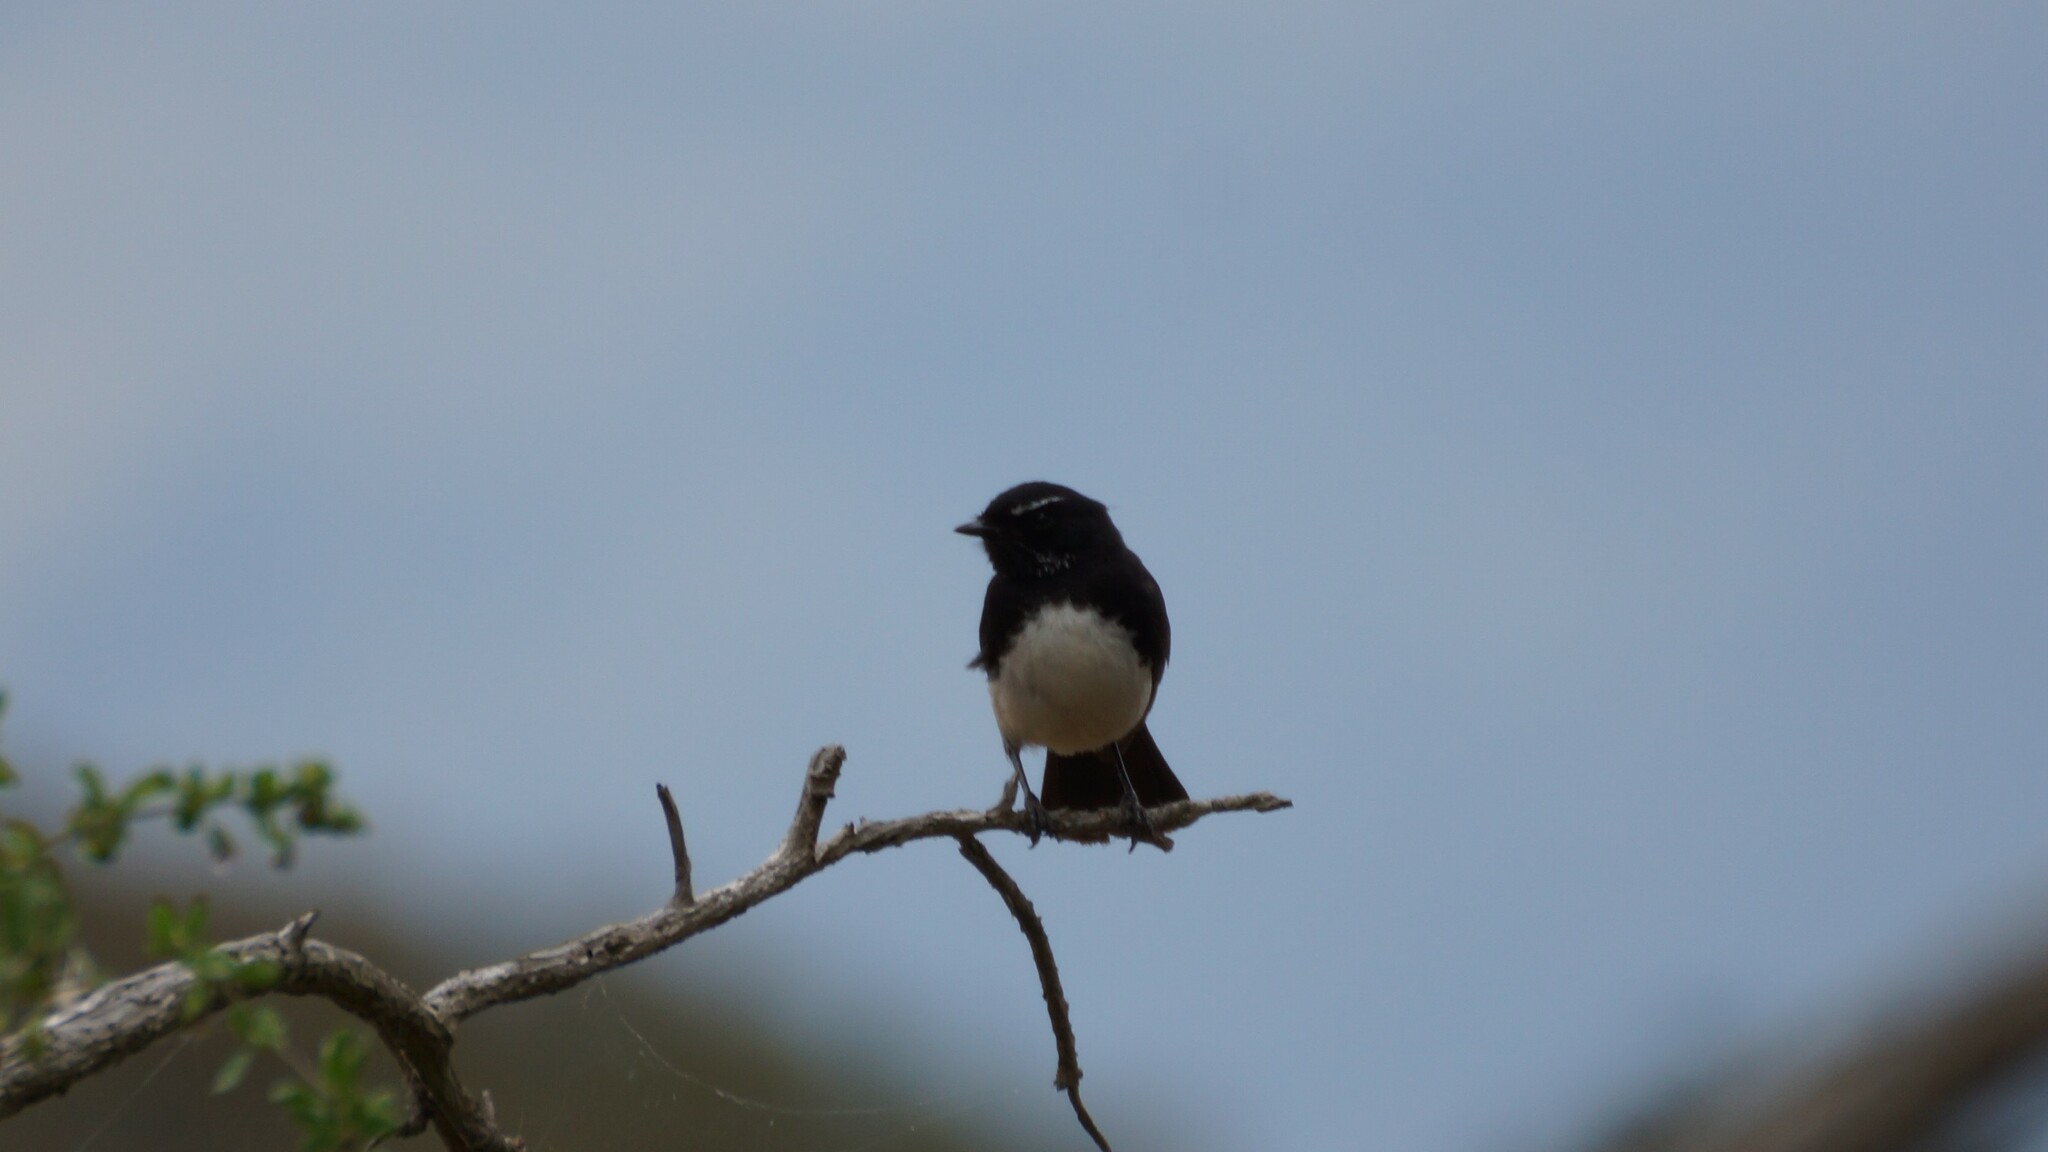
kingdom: Animalia
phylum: Chordata
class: Aves
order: Passeriformes
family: Rhipiduridae
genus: Rhipidura
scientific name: Rhipidura leucophrys
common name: Willie wagtail
